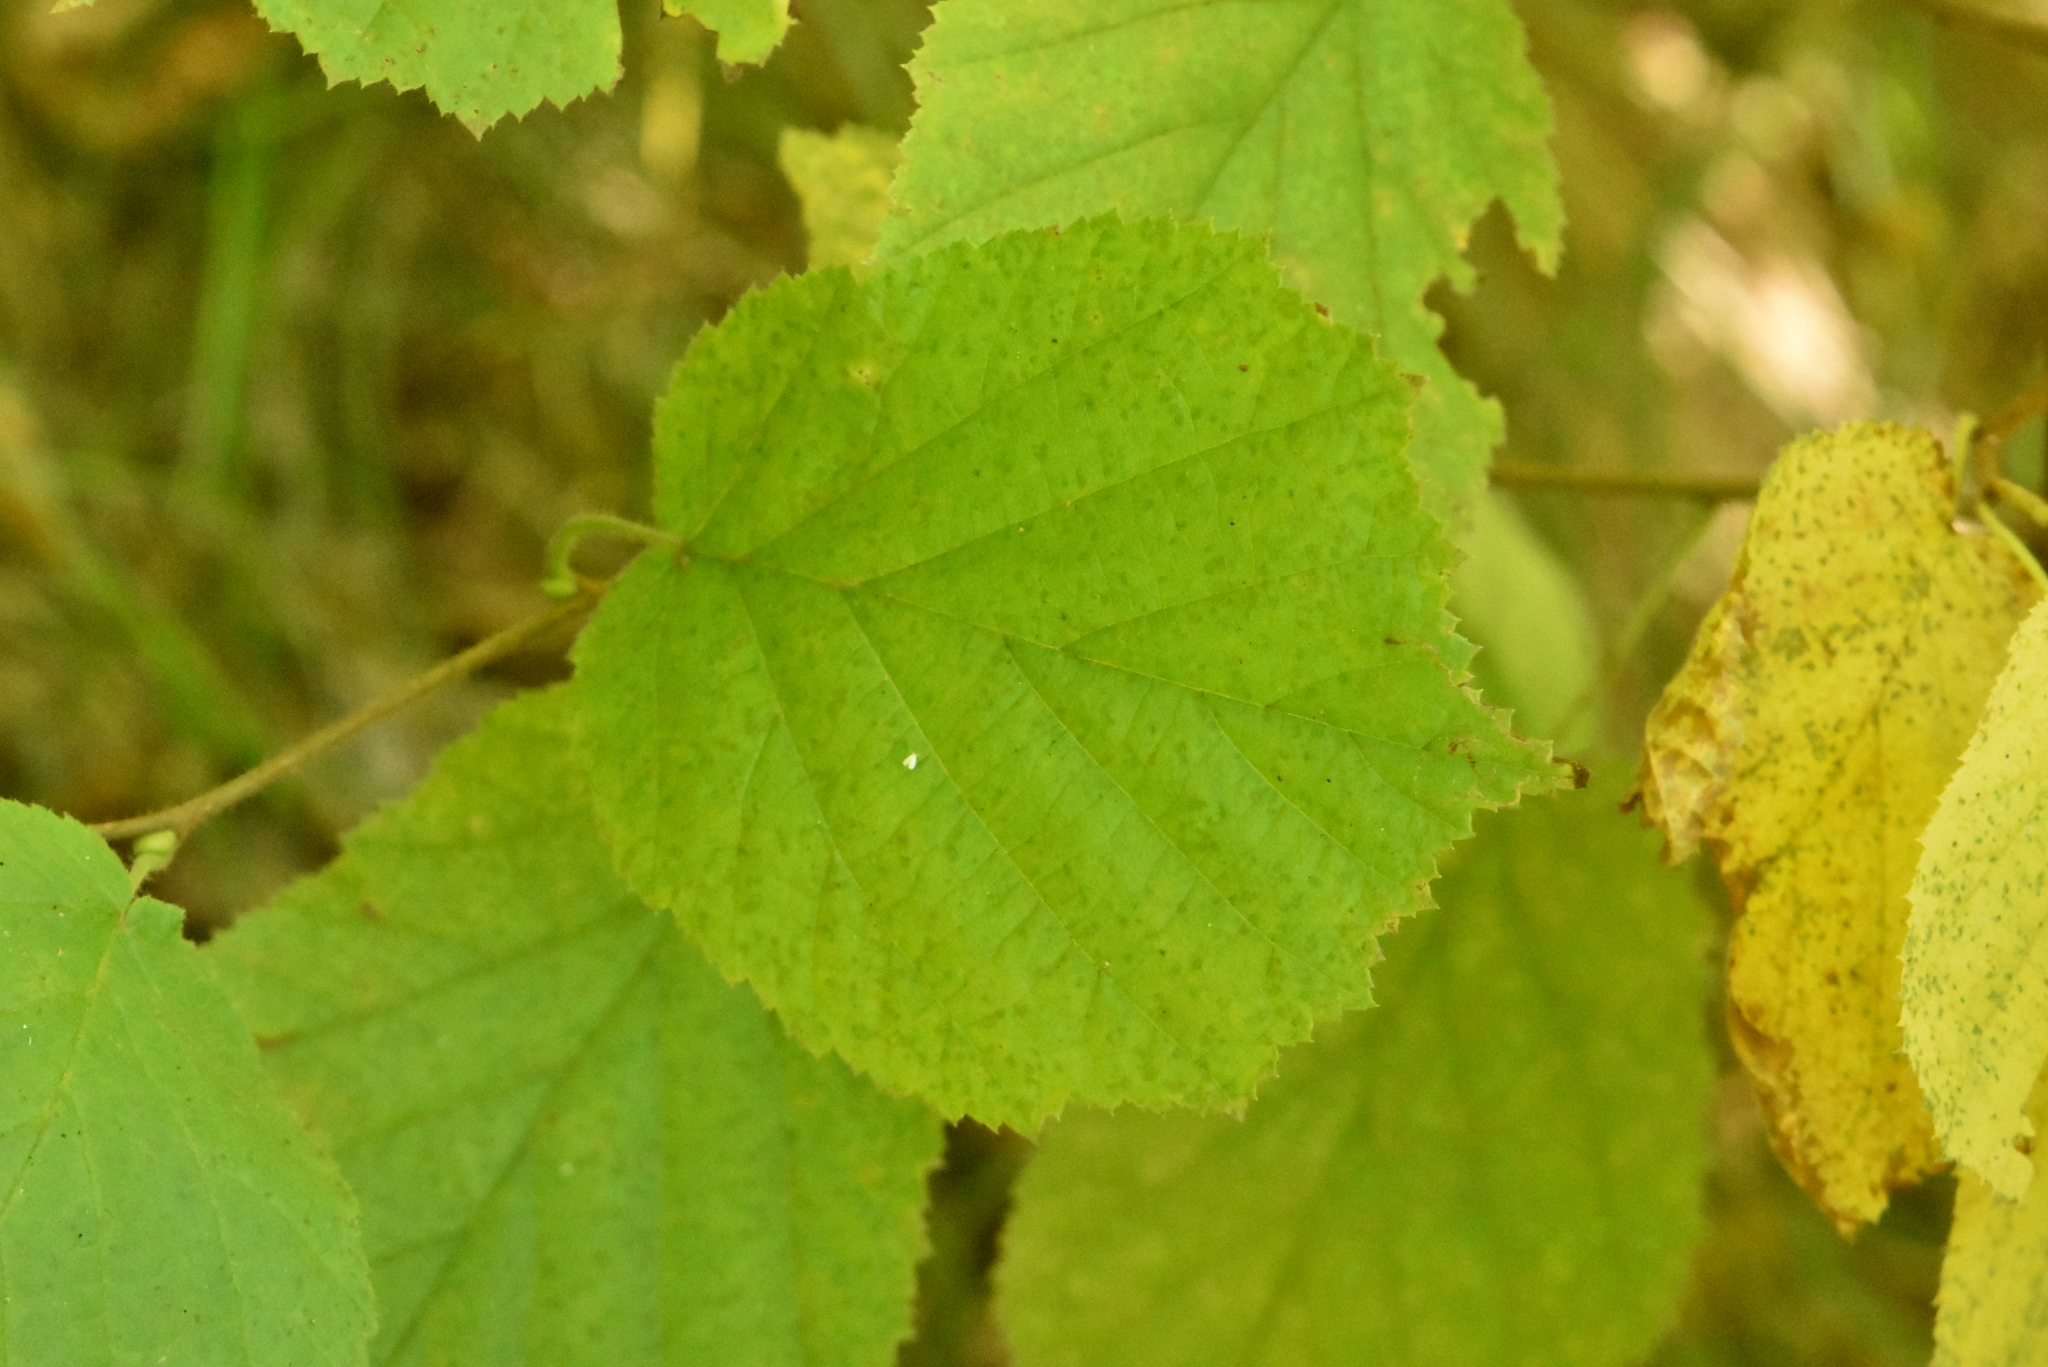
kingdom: Plantae
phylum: Tracheophyta
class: Magnoliopsida
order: Fagales
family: Betulaceae
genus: Corylus
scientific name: Corylus avellana
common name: European hazel
